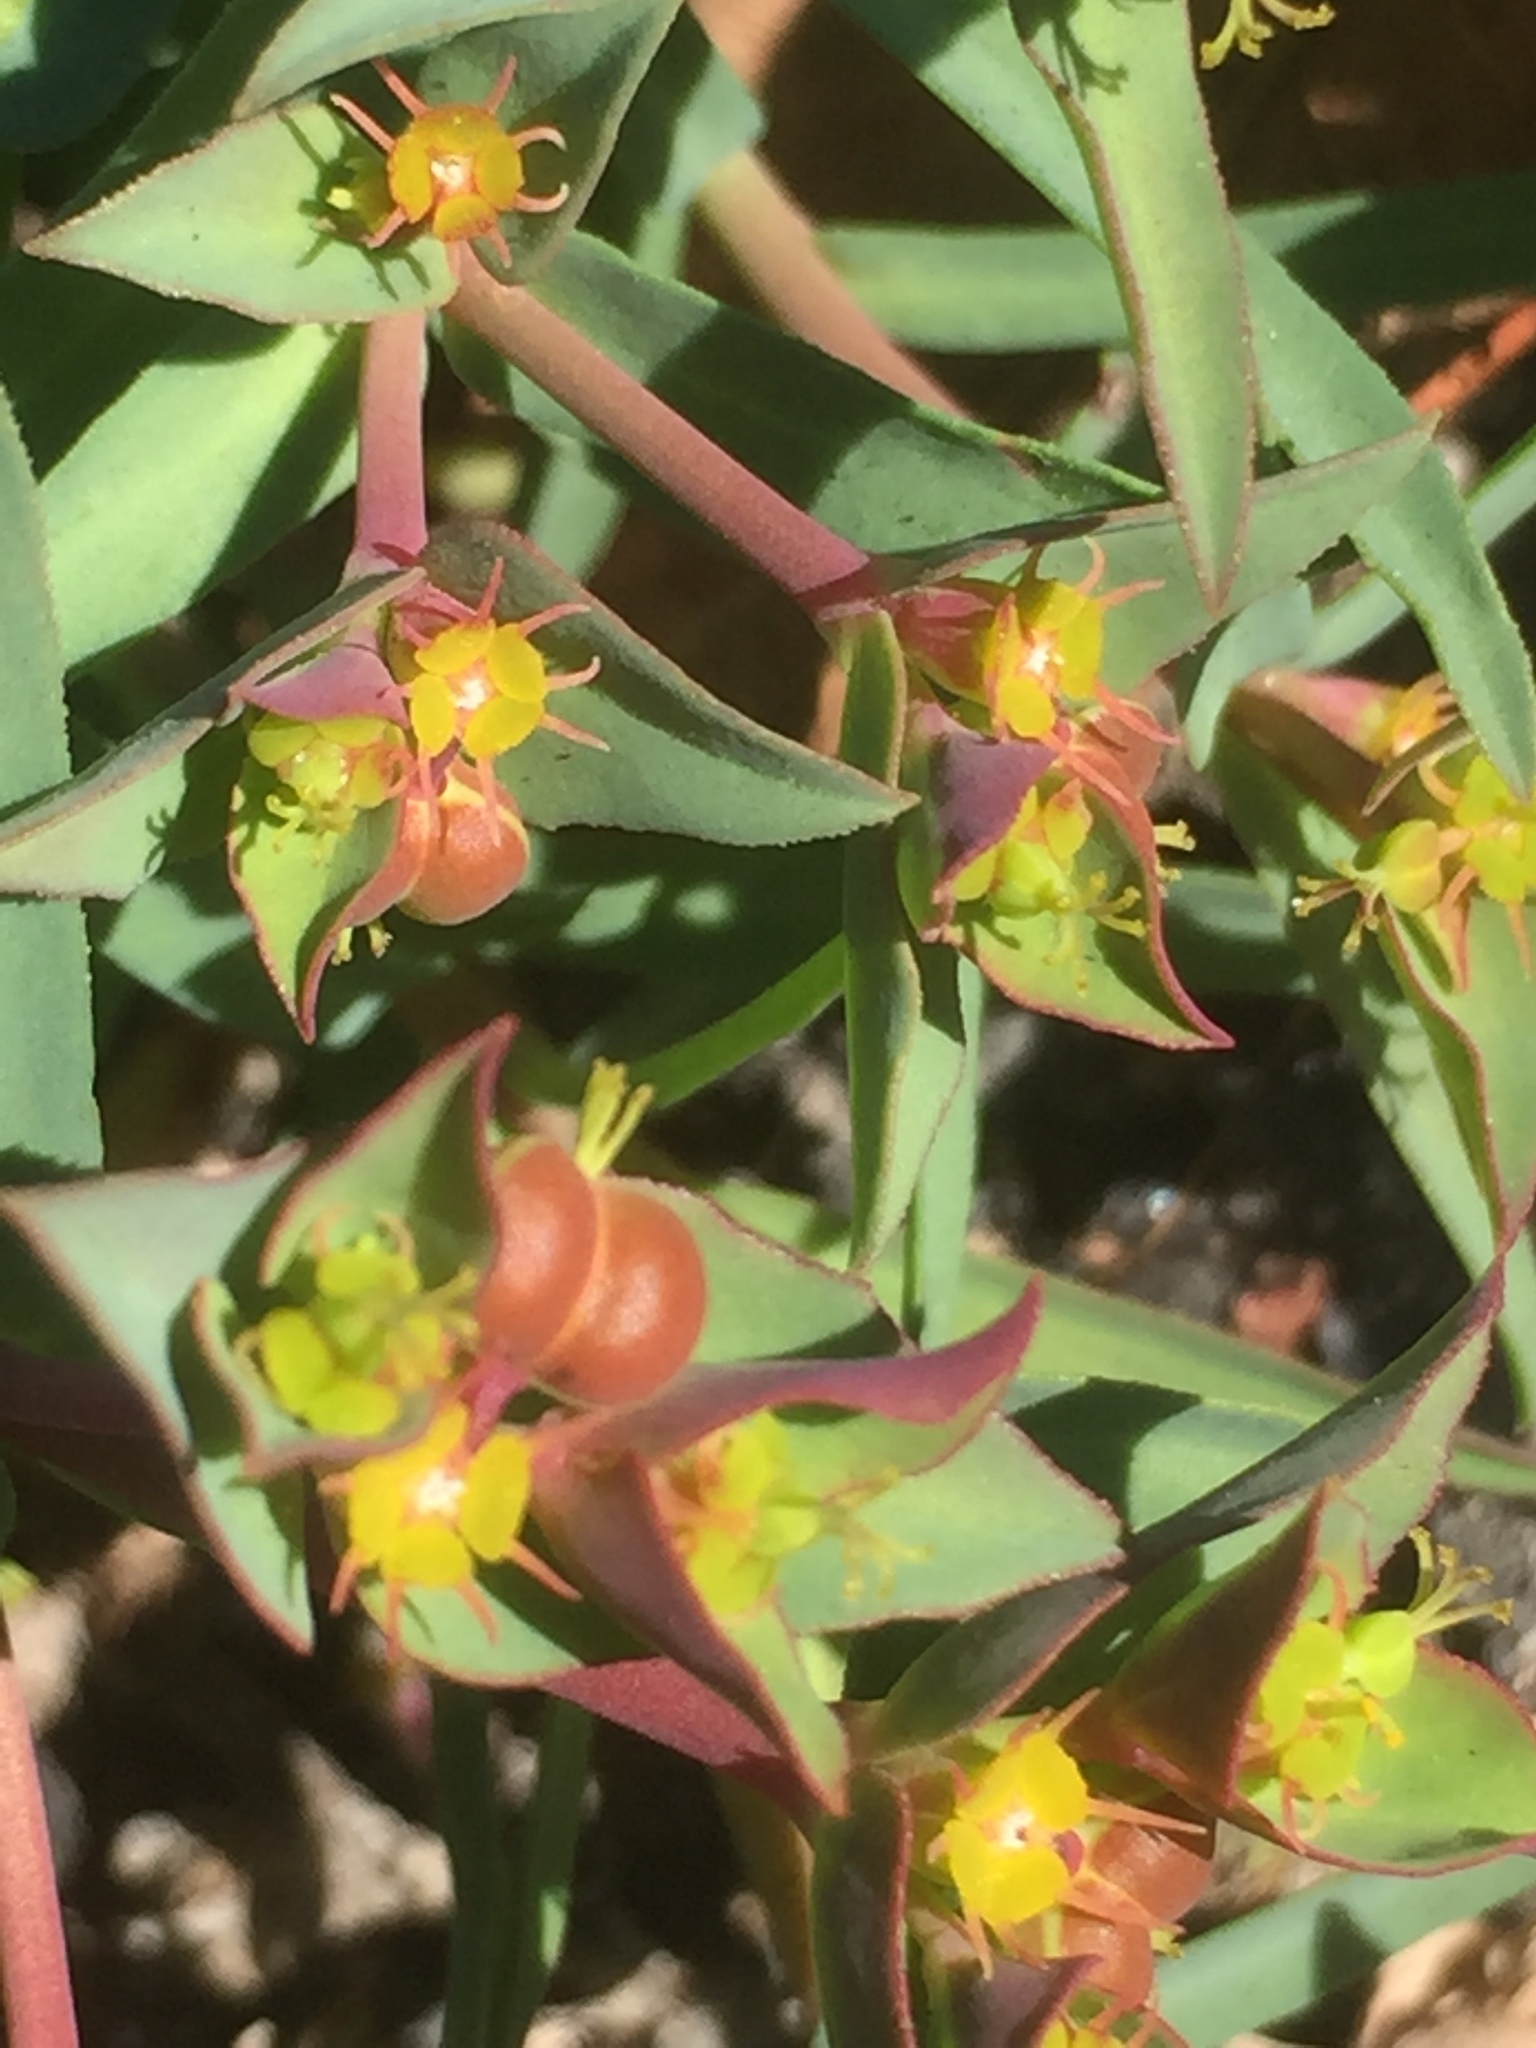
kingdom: Plantae
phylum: Tracheophyta
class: Magnoliopsida
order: Malpighiales
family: Euphorbiaceae
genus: Euphorbia
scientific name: Euphorbia terracina
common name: Geraldton carnation weed
